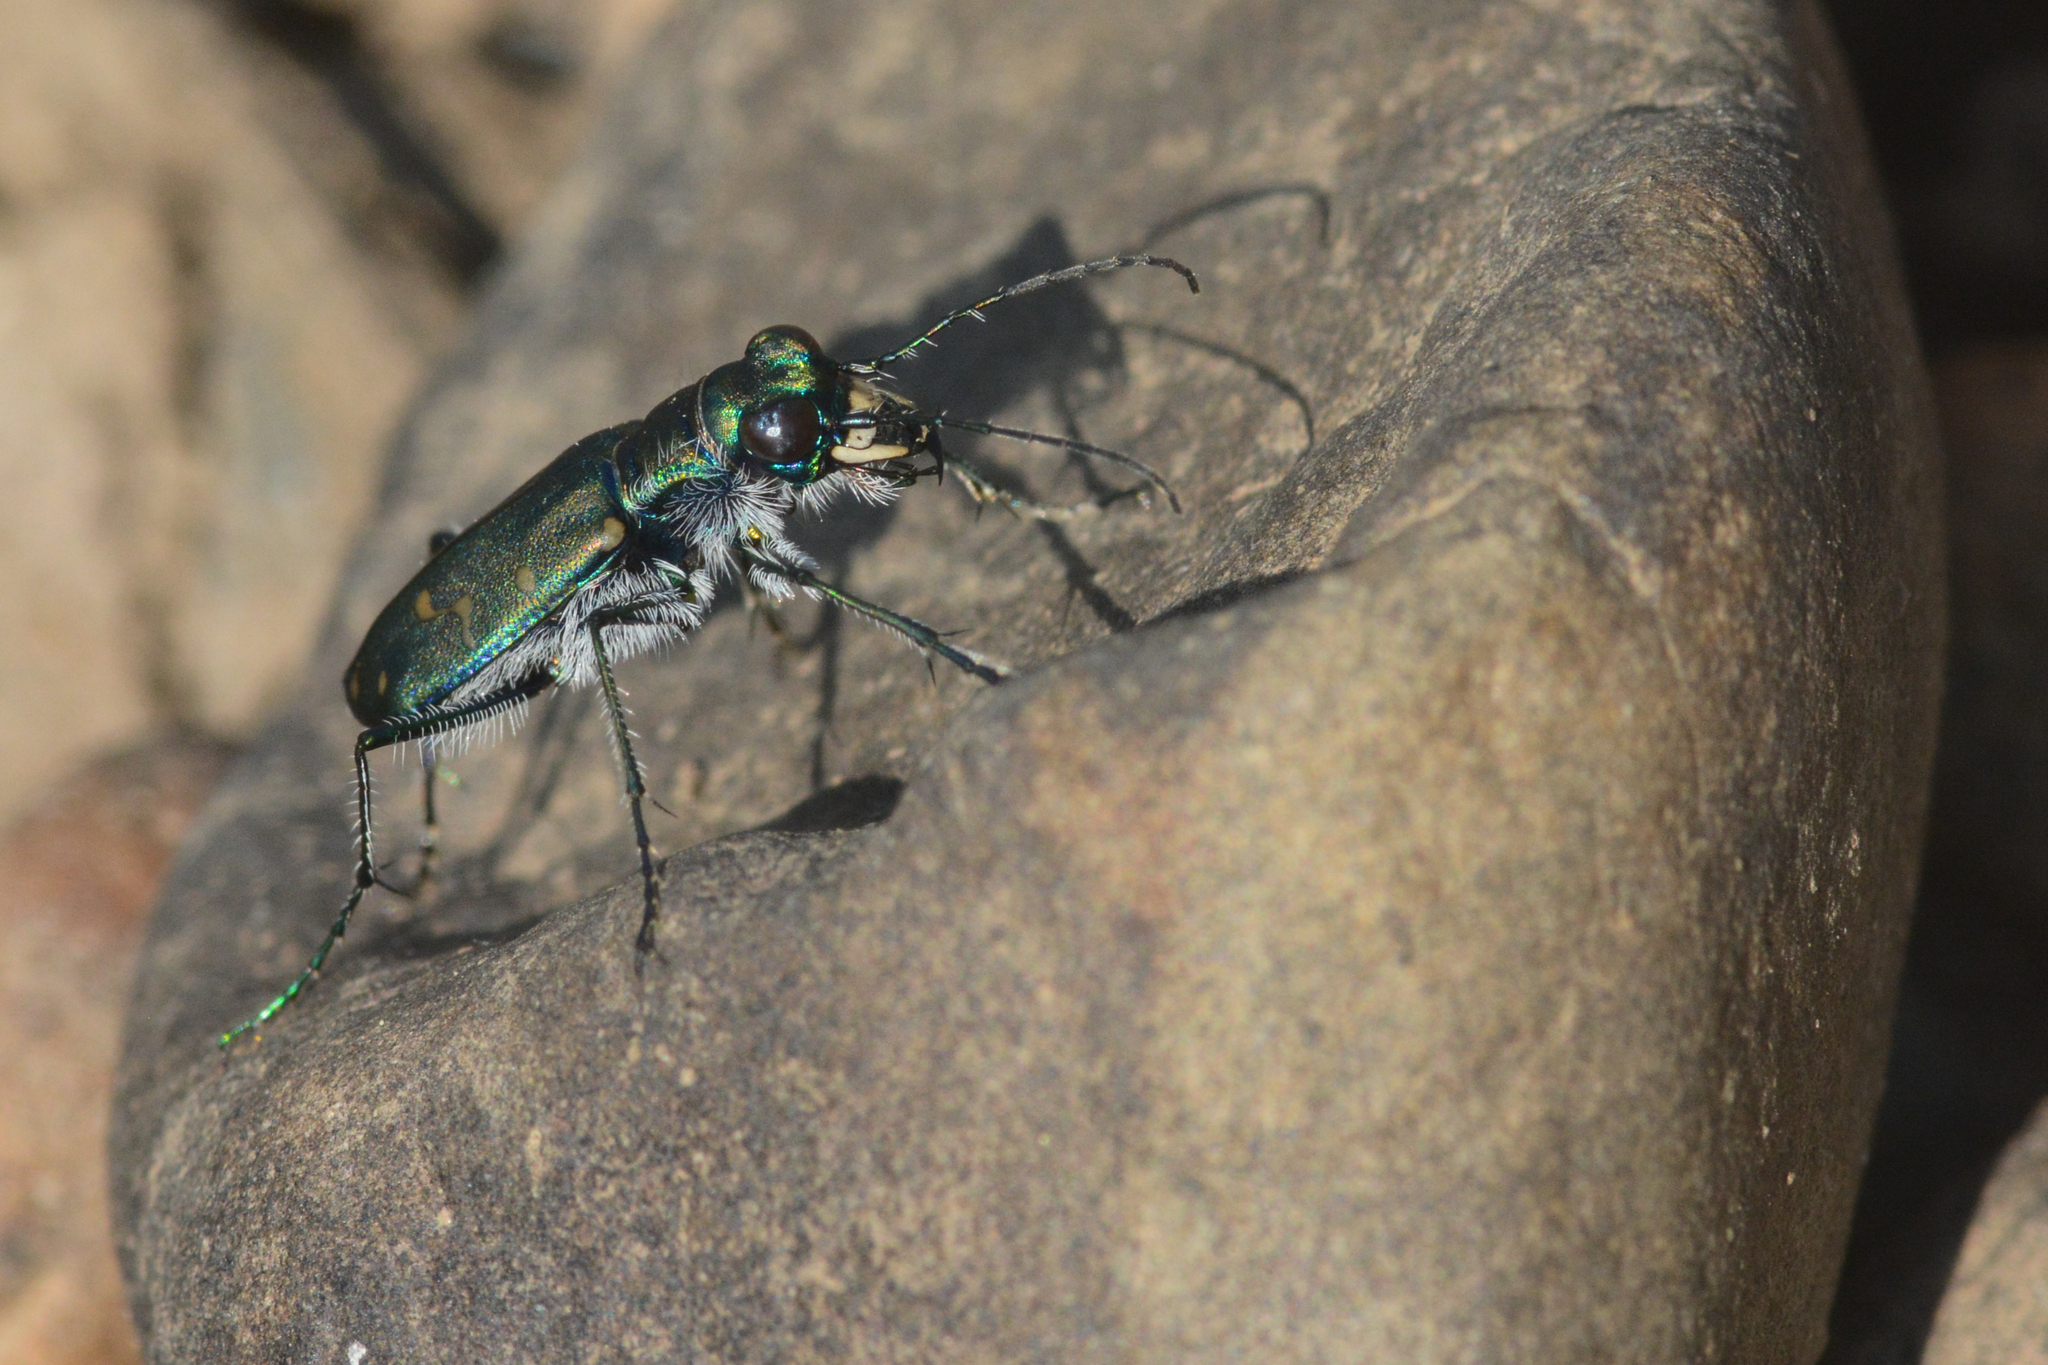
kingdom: Animalia
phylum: Arthropoda
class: Insecta
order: Coleoptera
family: Carabidae
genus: Cicindela
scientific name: Cicindela oregona
